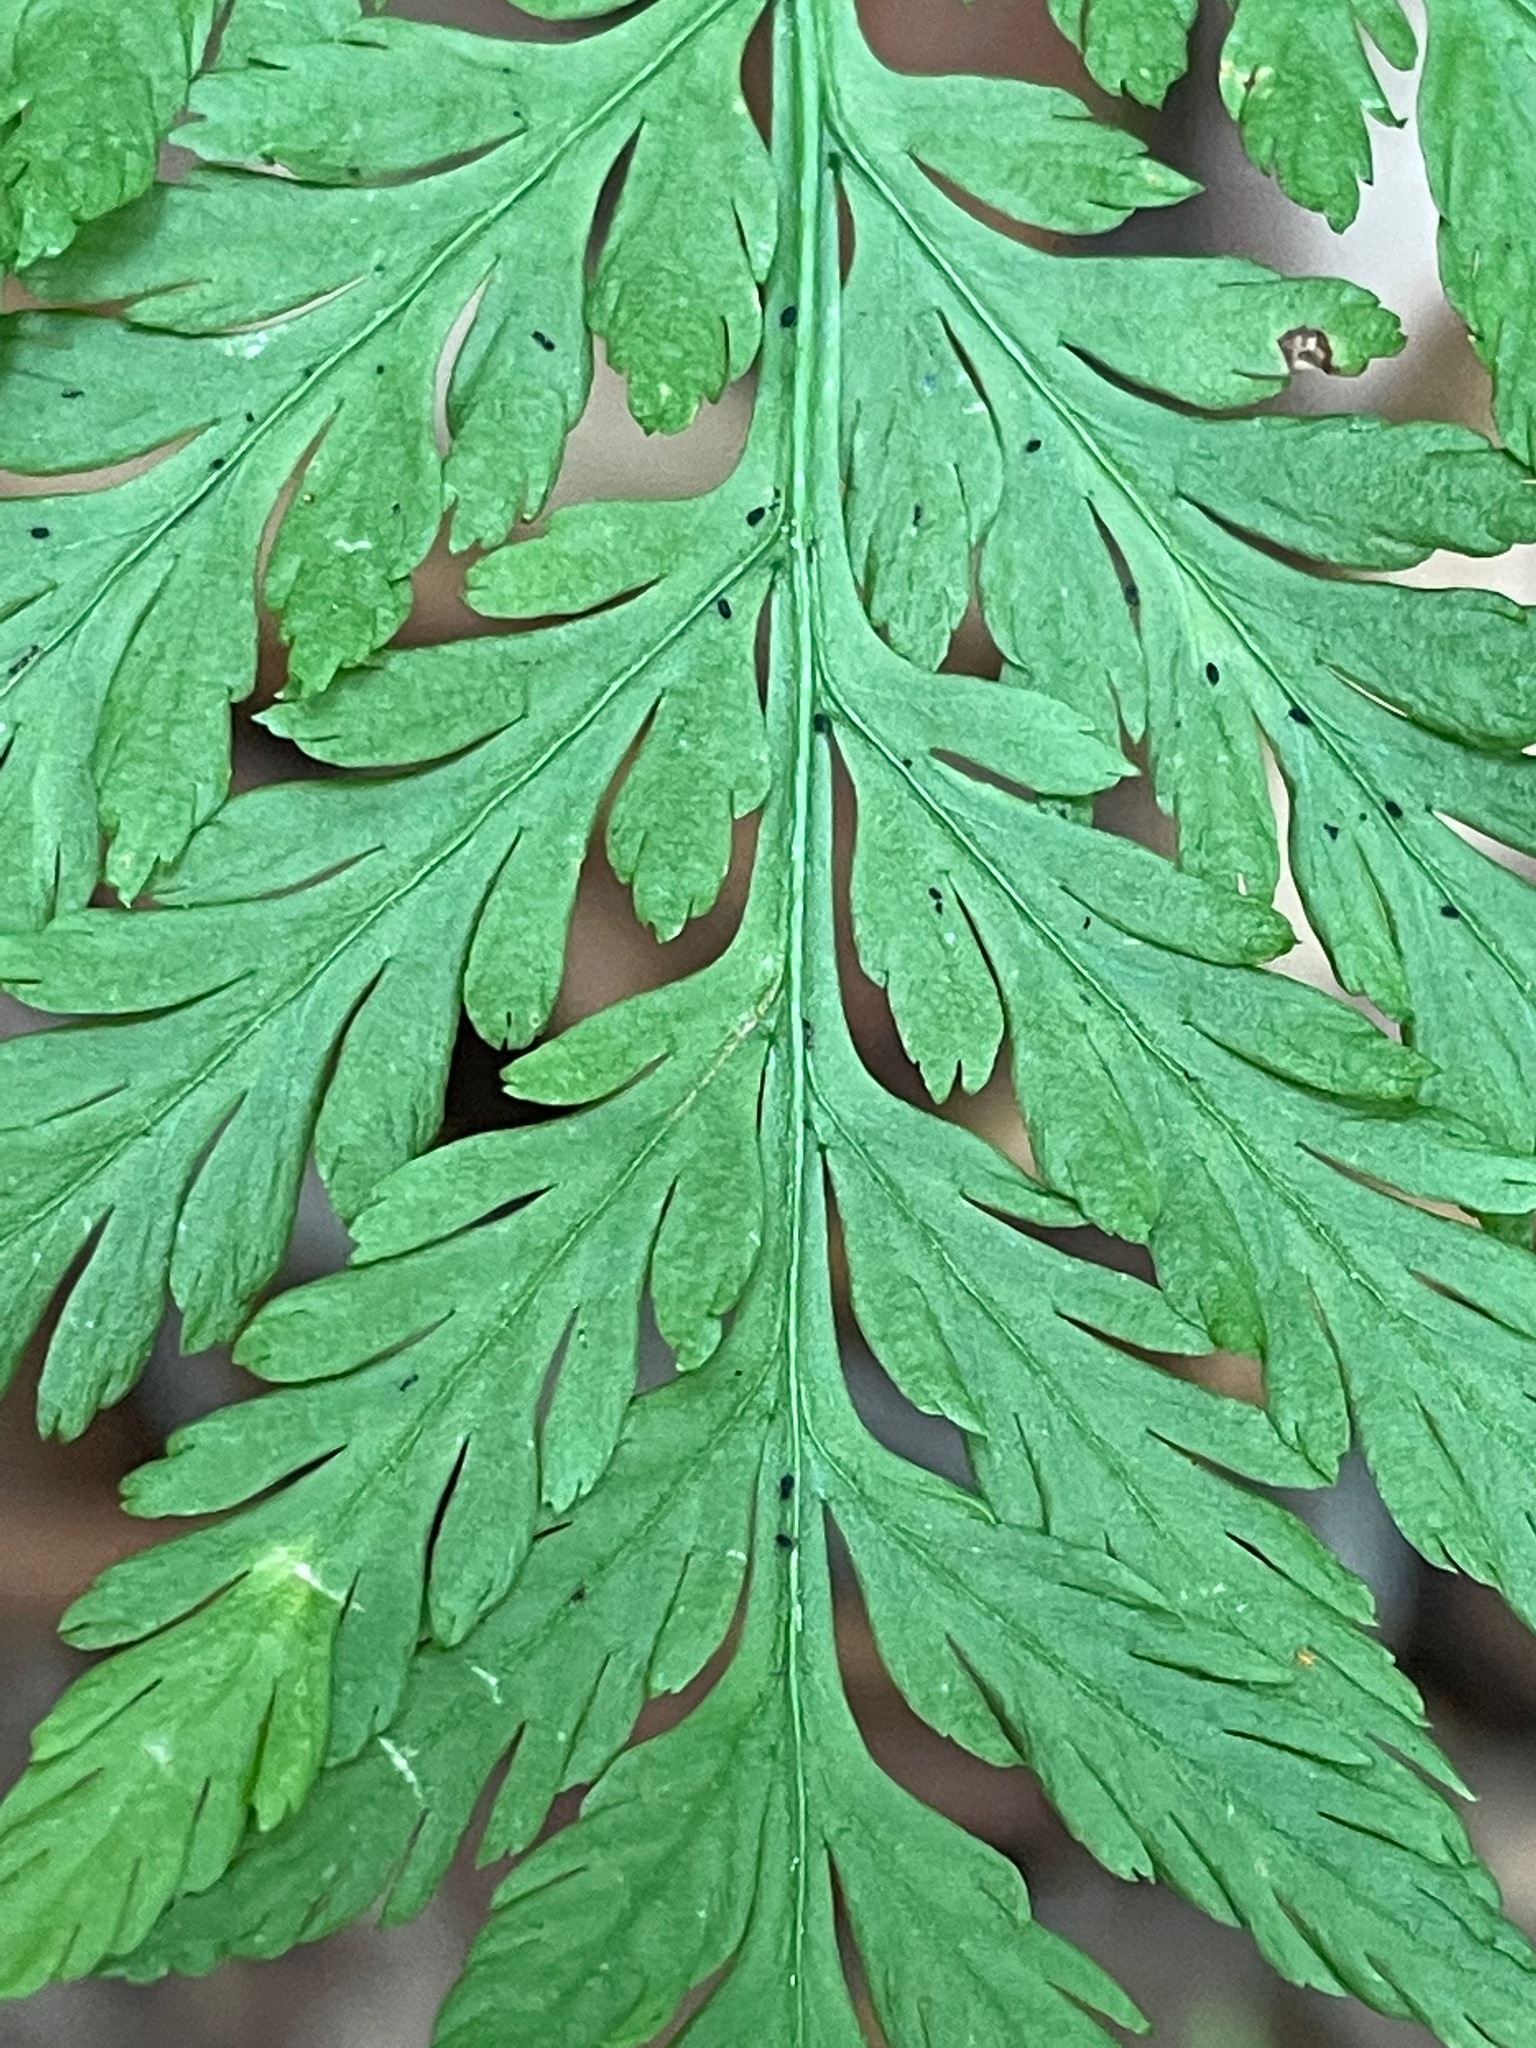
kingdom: Plantae
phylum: Tracheophyta
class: Polypodiopsida
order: Ophioglossales
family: Ophioglossaceae
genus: Botrypus
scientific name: Botrypus virginianus
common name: Common grapefern
